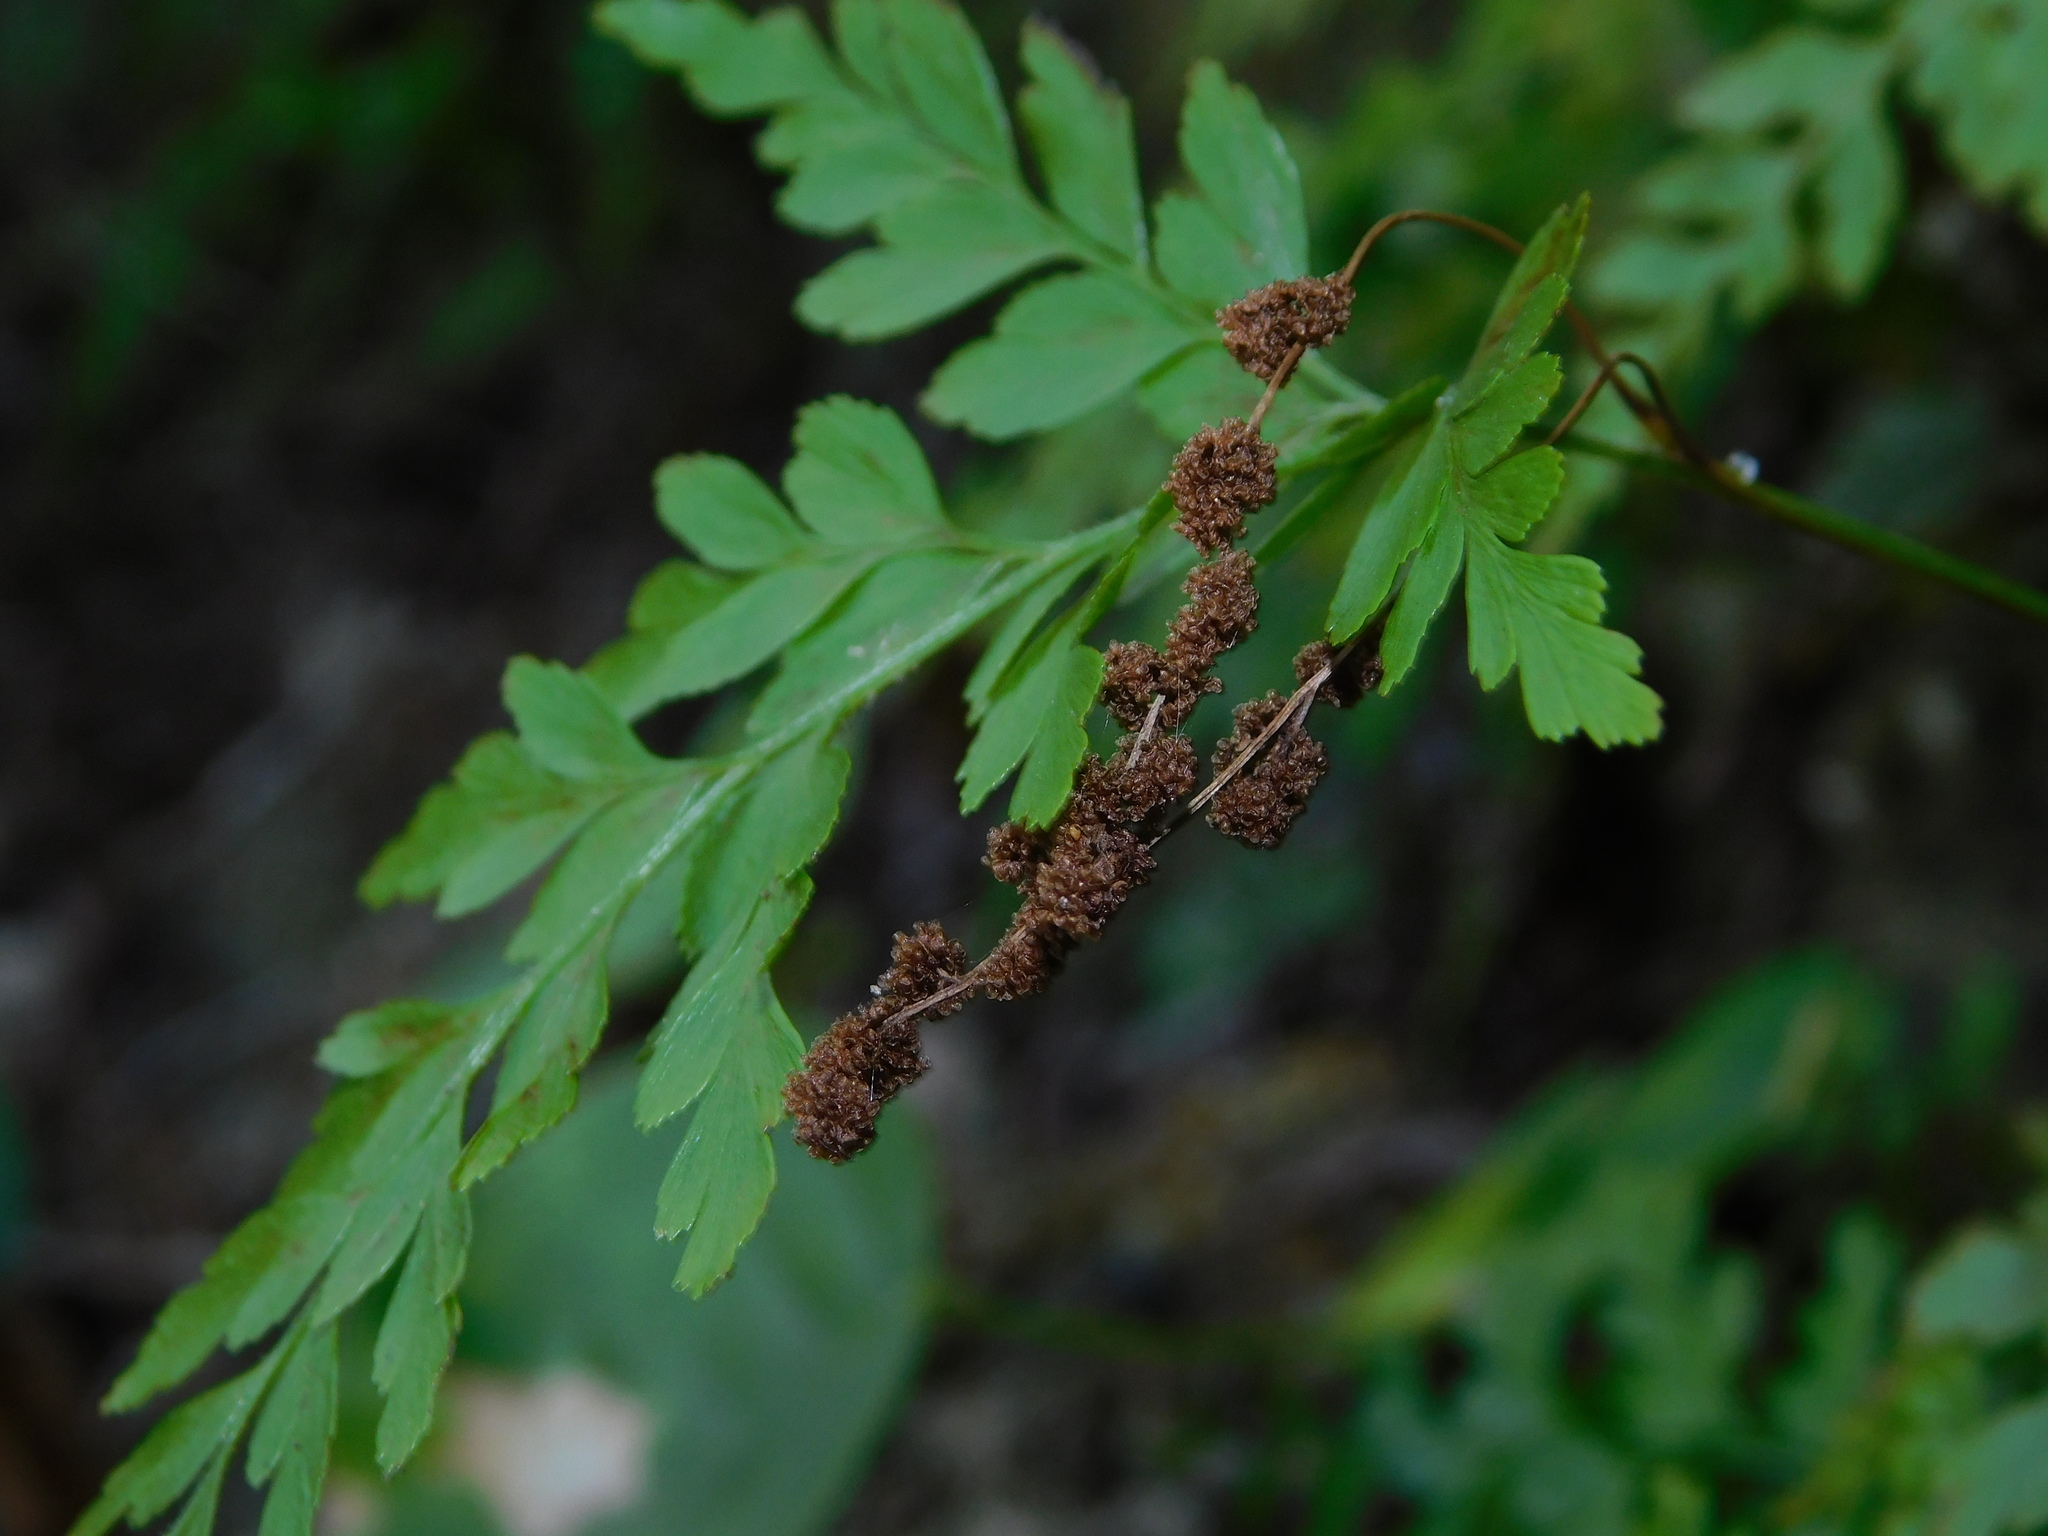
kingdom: Plantae
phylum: Tracheophyta
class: Polypodiopsida
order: Schizaeales
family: Anemiaceae
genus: Anemia
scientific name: Anemia adiantifolia
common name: Pine fern
